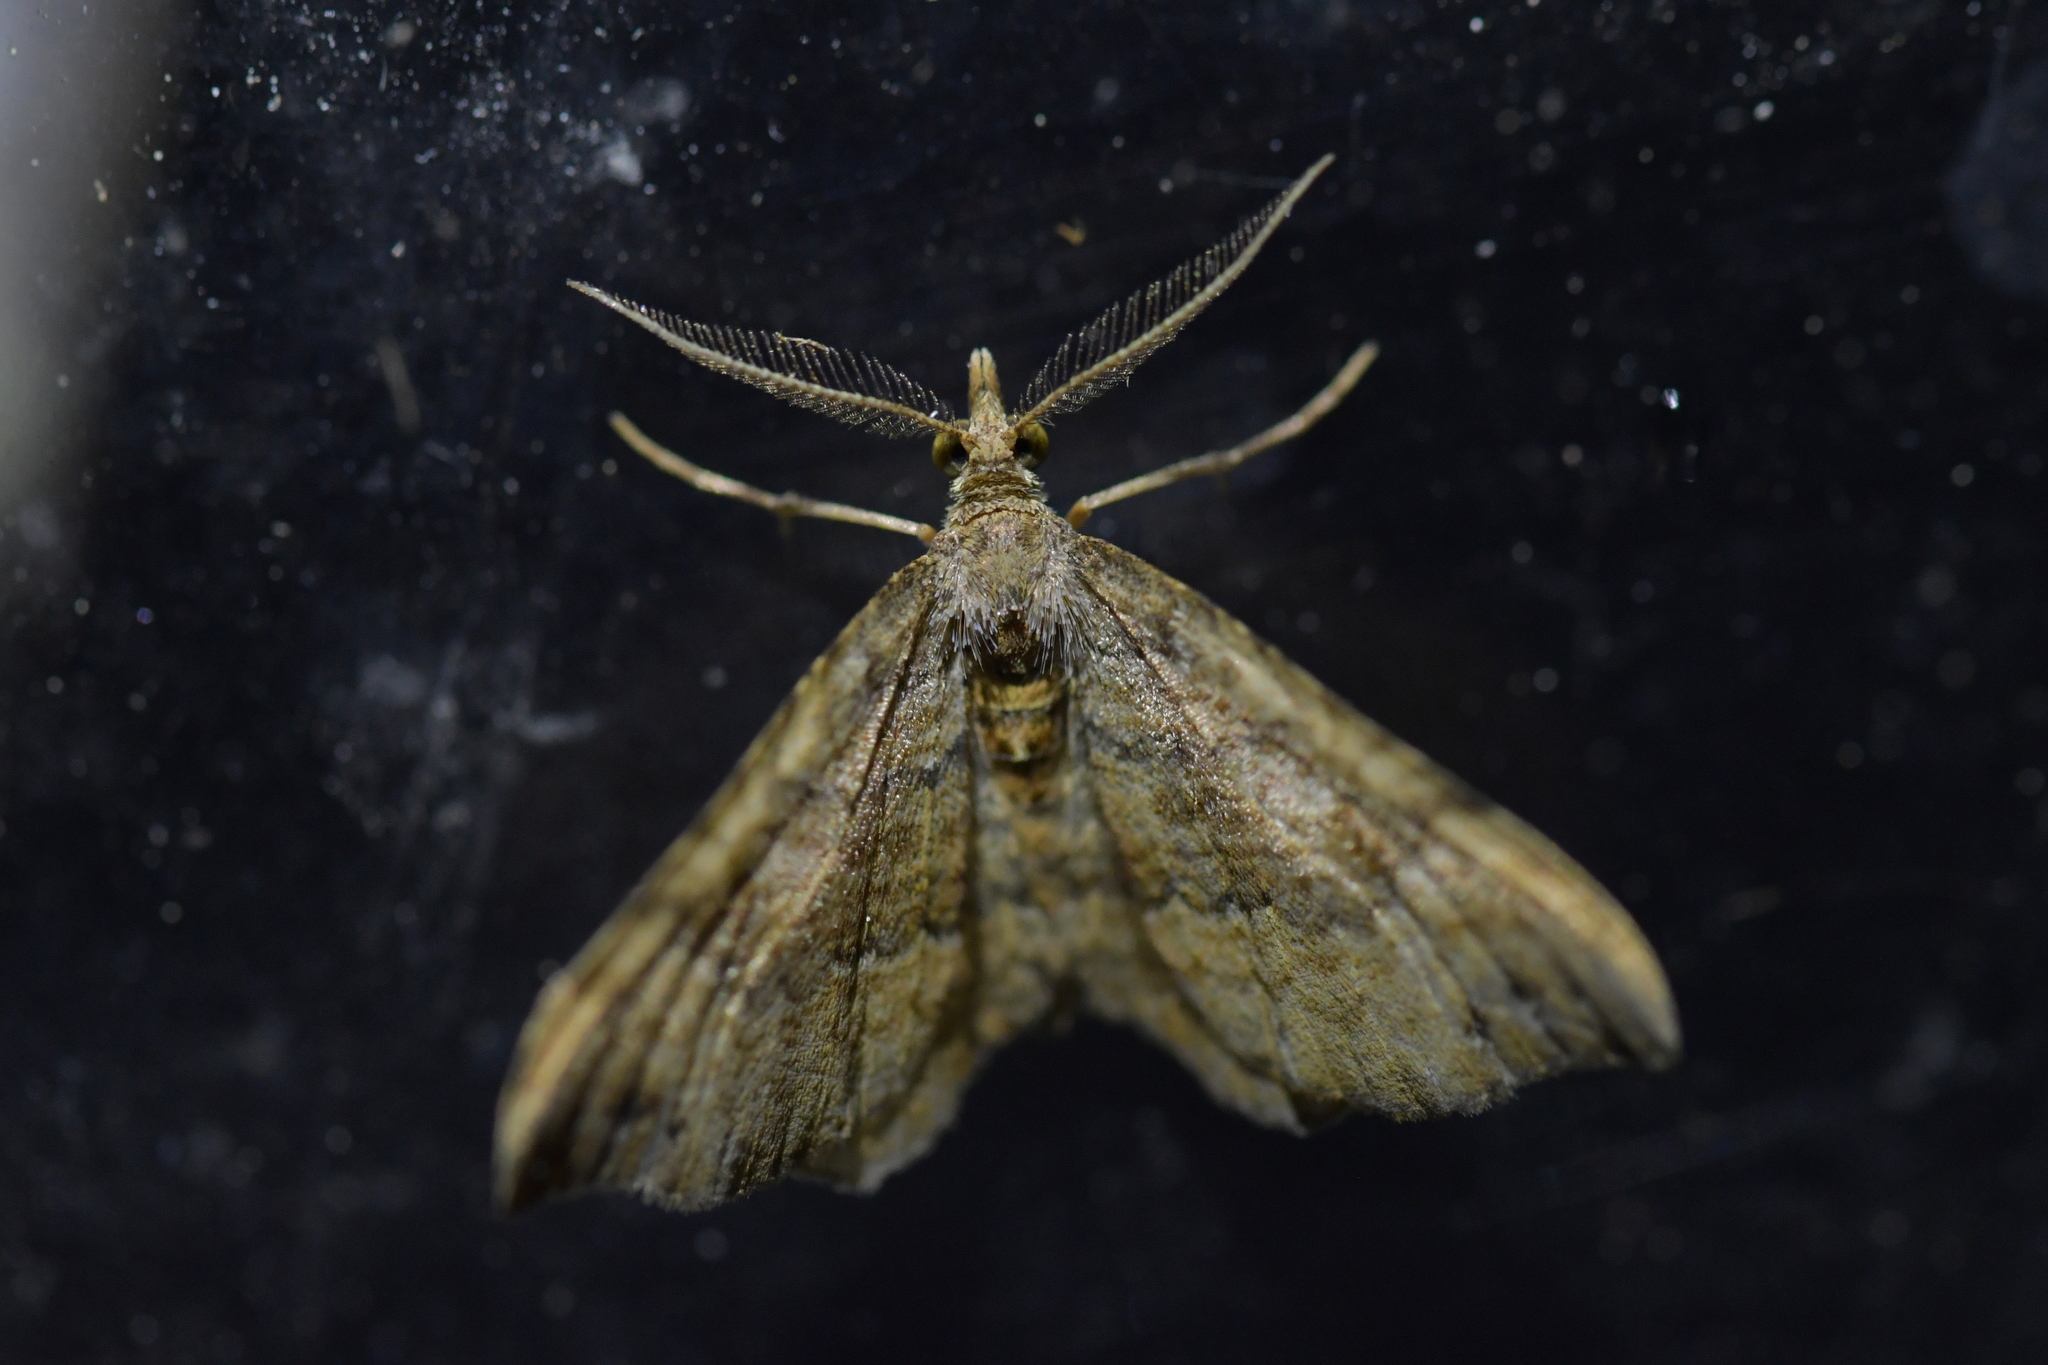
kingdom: Animalia
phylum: Arthropoda
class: Insecta
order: Lepidoptera
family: Geometridae
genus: Homodotis
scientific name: Homodotis megaspilata
